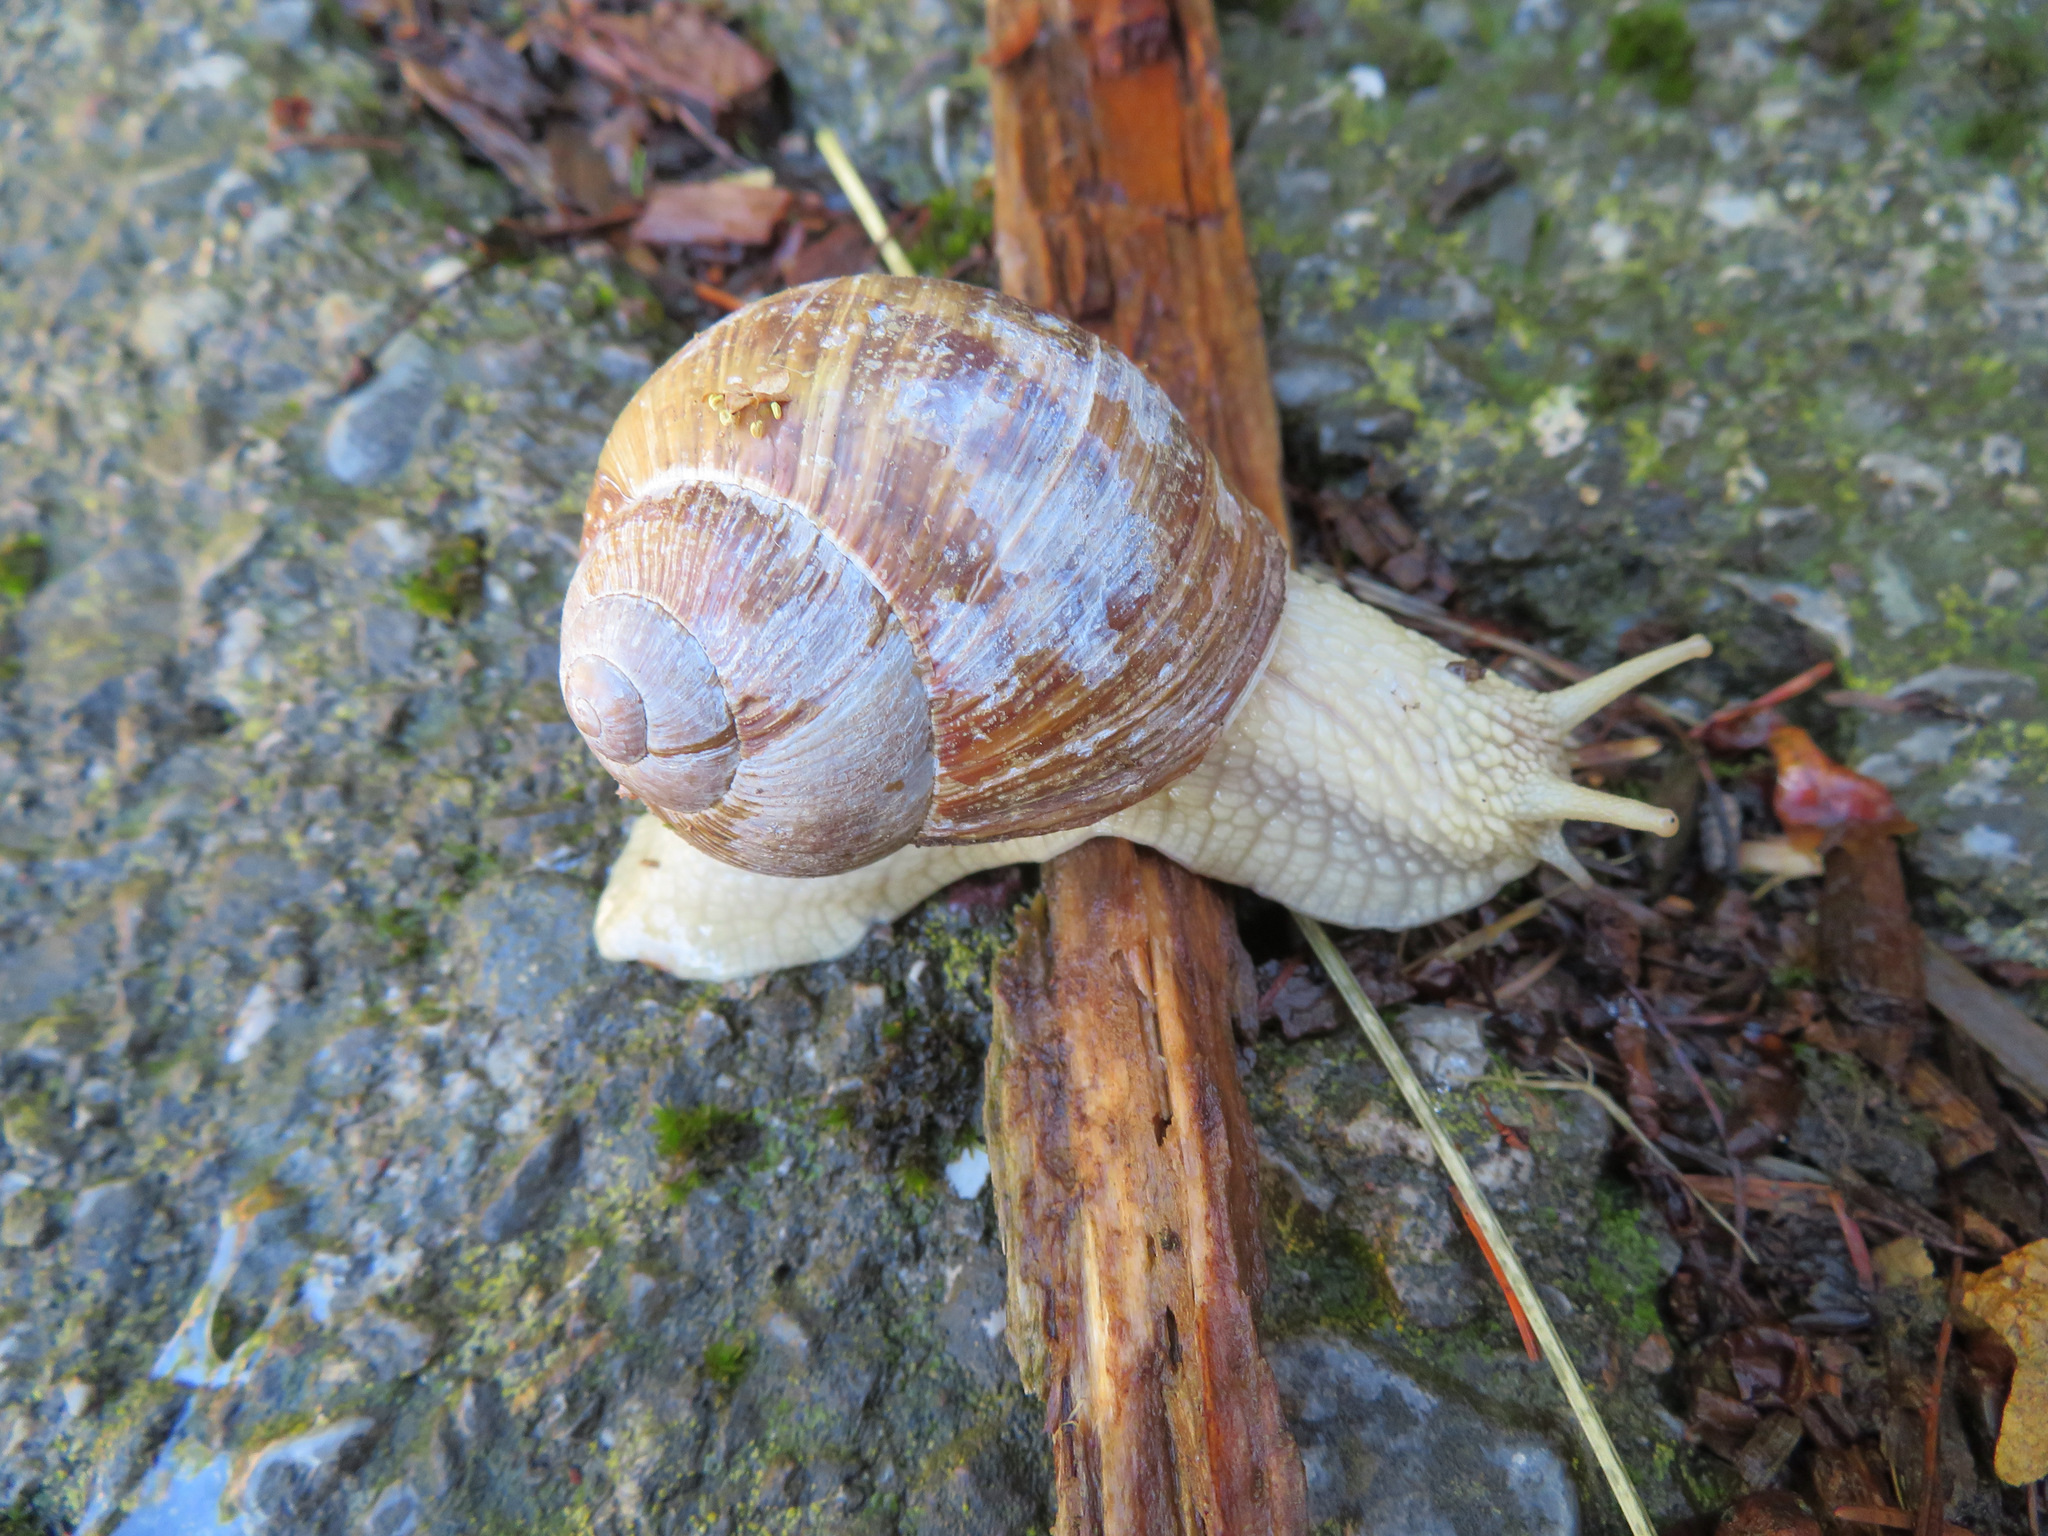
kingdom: Animalia
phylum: Mollusca
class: Gastropoda
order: Stylommatophora
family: Helicidae
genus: Helix
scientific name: Helix pomatia
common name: Roman snail
